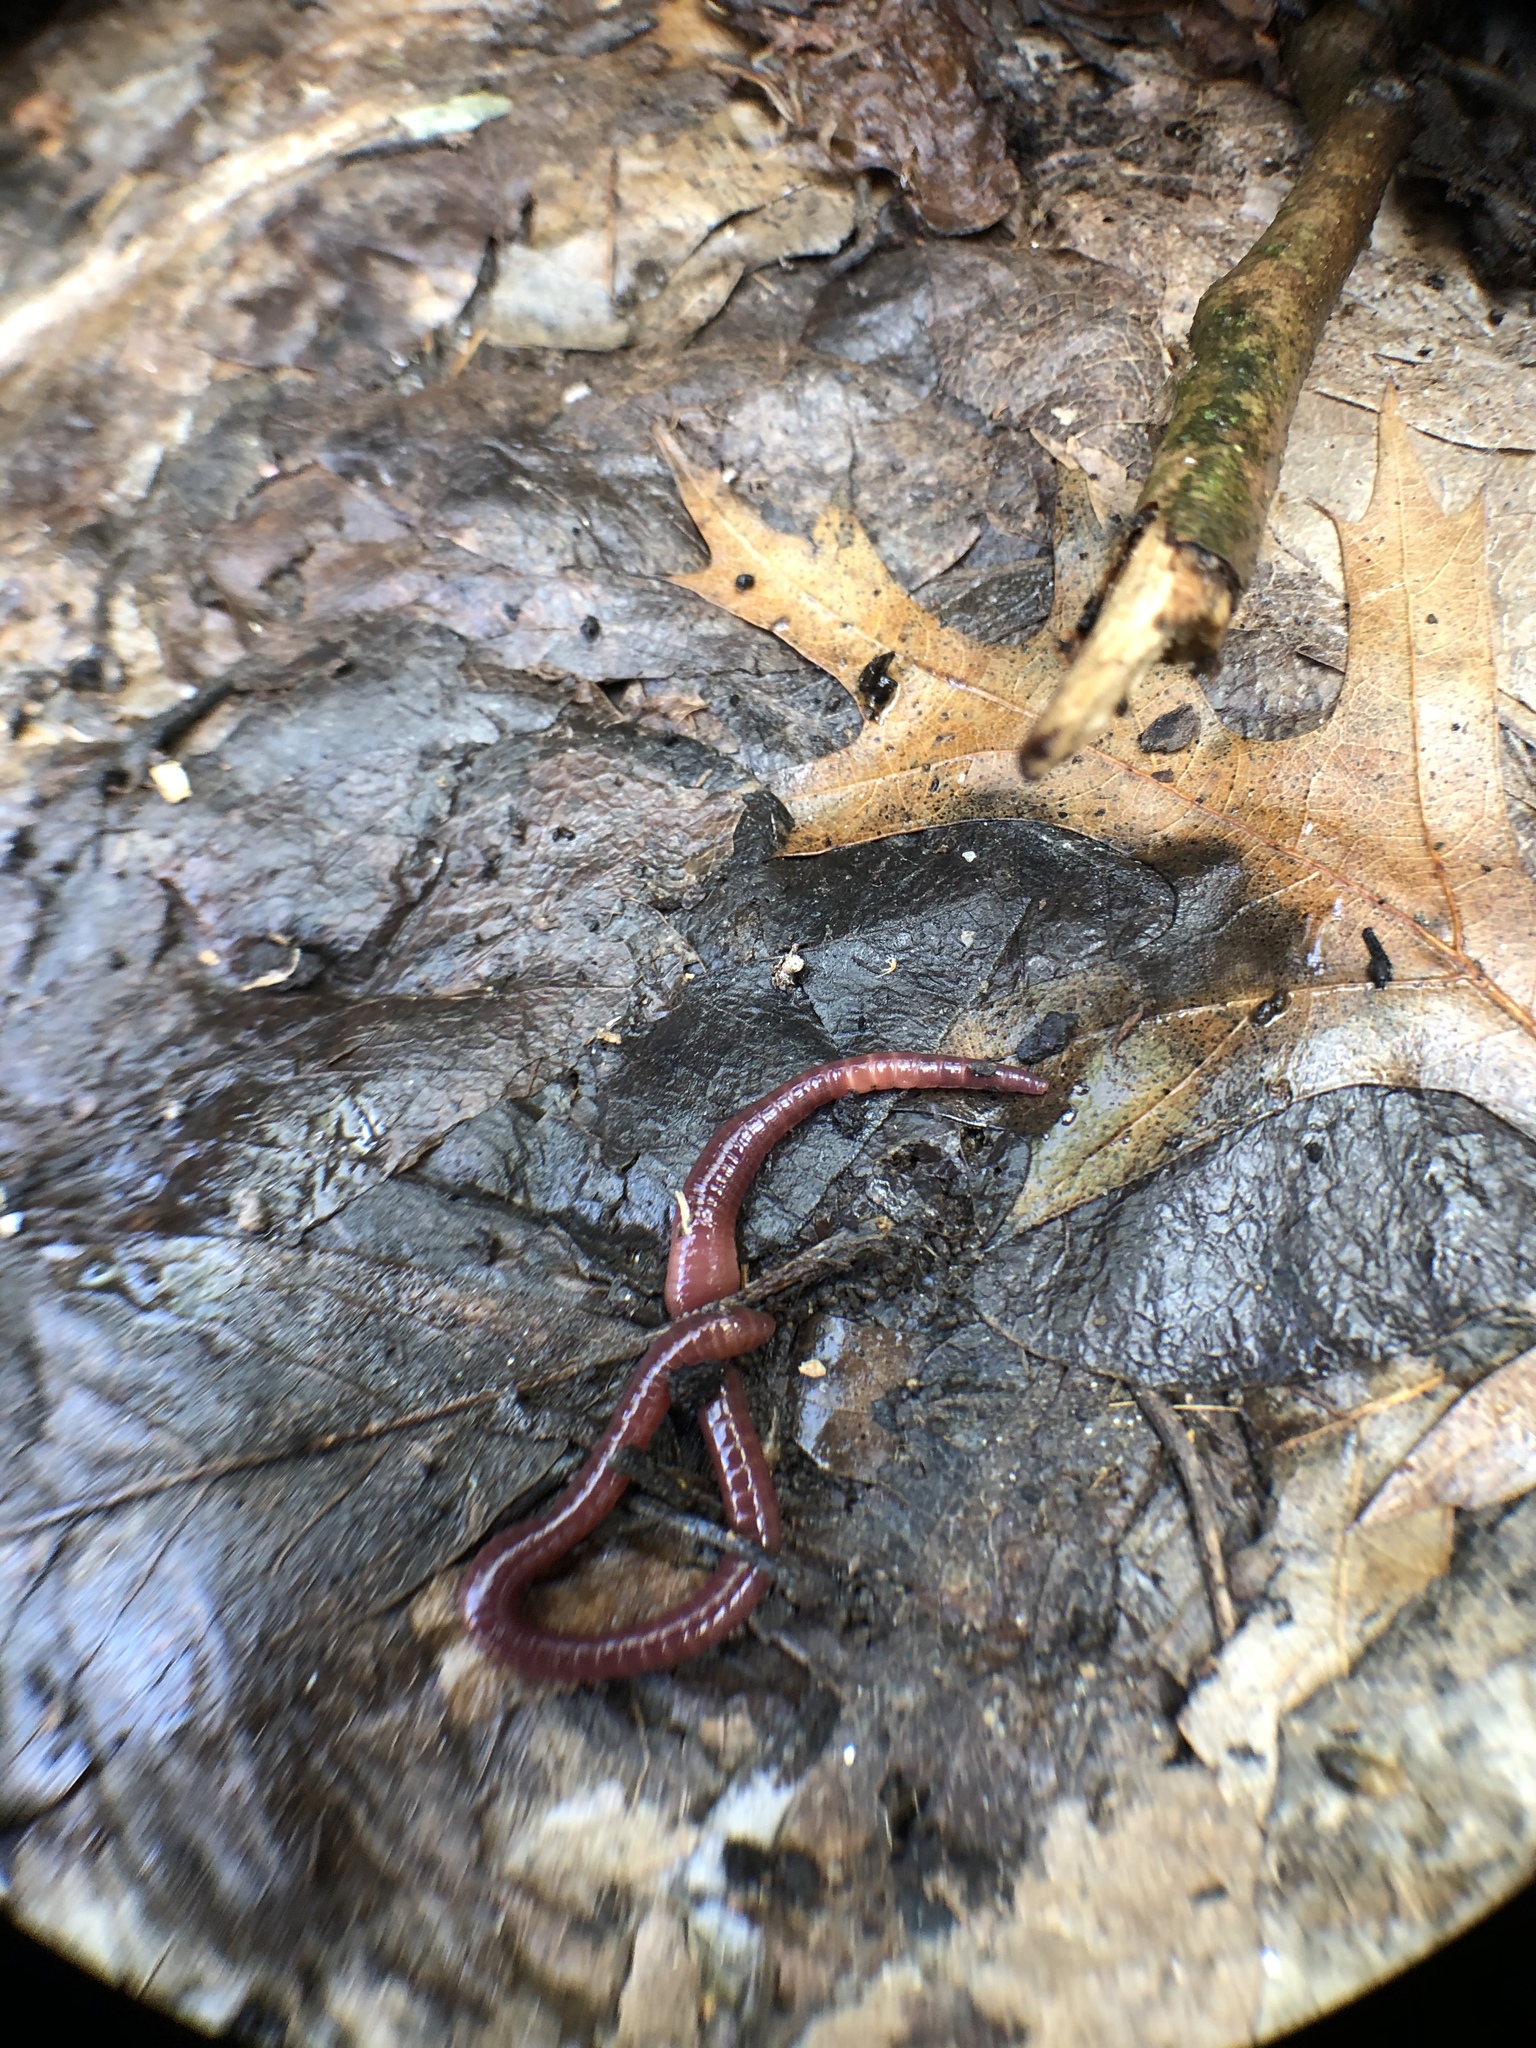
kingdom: Animalia
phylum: Annelida
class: Clitellata
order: Crassiclitellata
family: Lumbricidae
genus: Eisenia
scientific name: Eisenia andrei
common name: Manure worm
